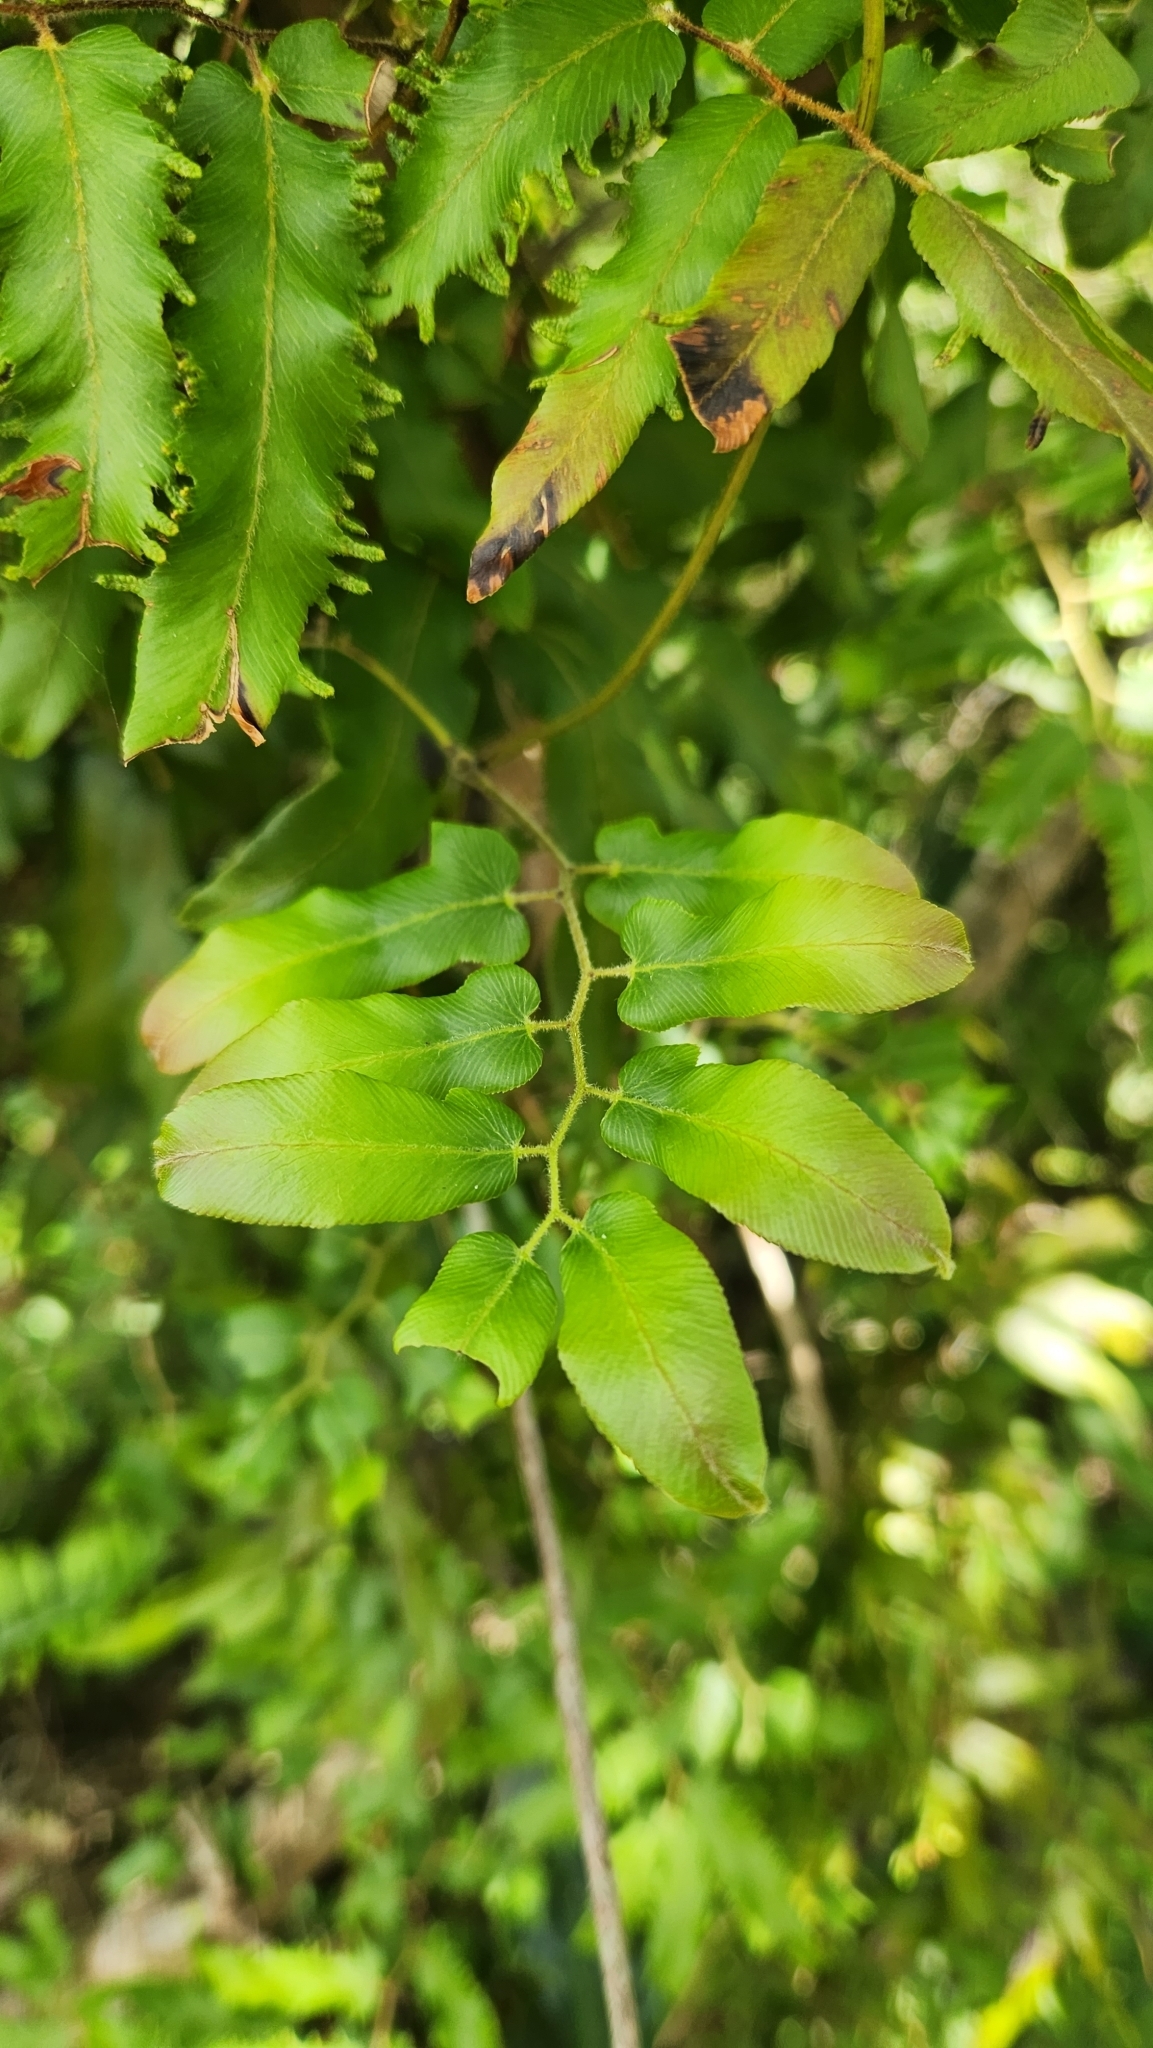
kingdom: Plantae
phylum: Tracheophyta
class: Polypodiopsida
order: Schizaeales
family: Lygodiaceae
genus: Lygodium
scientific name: Lygodium volubile
